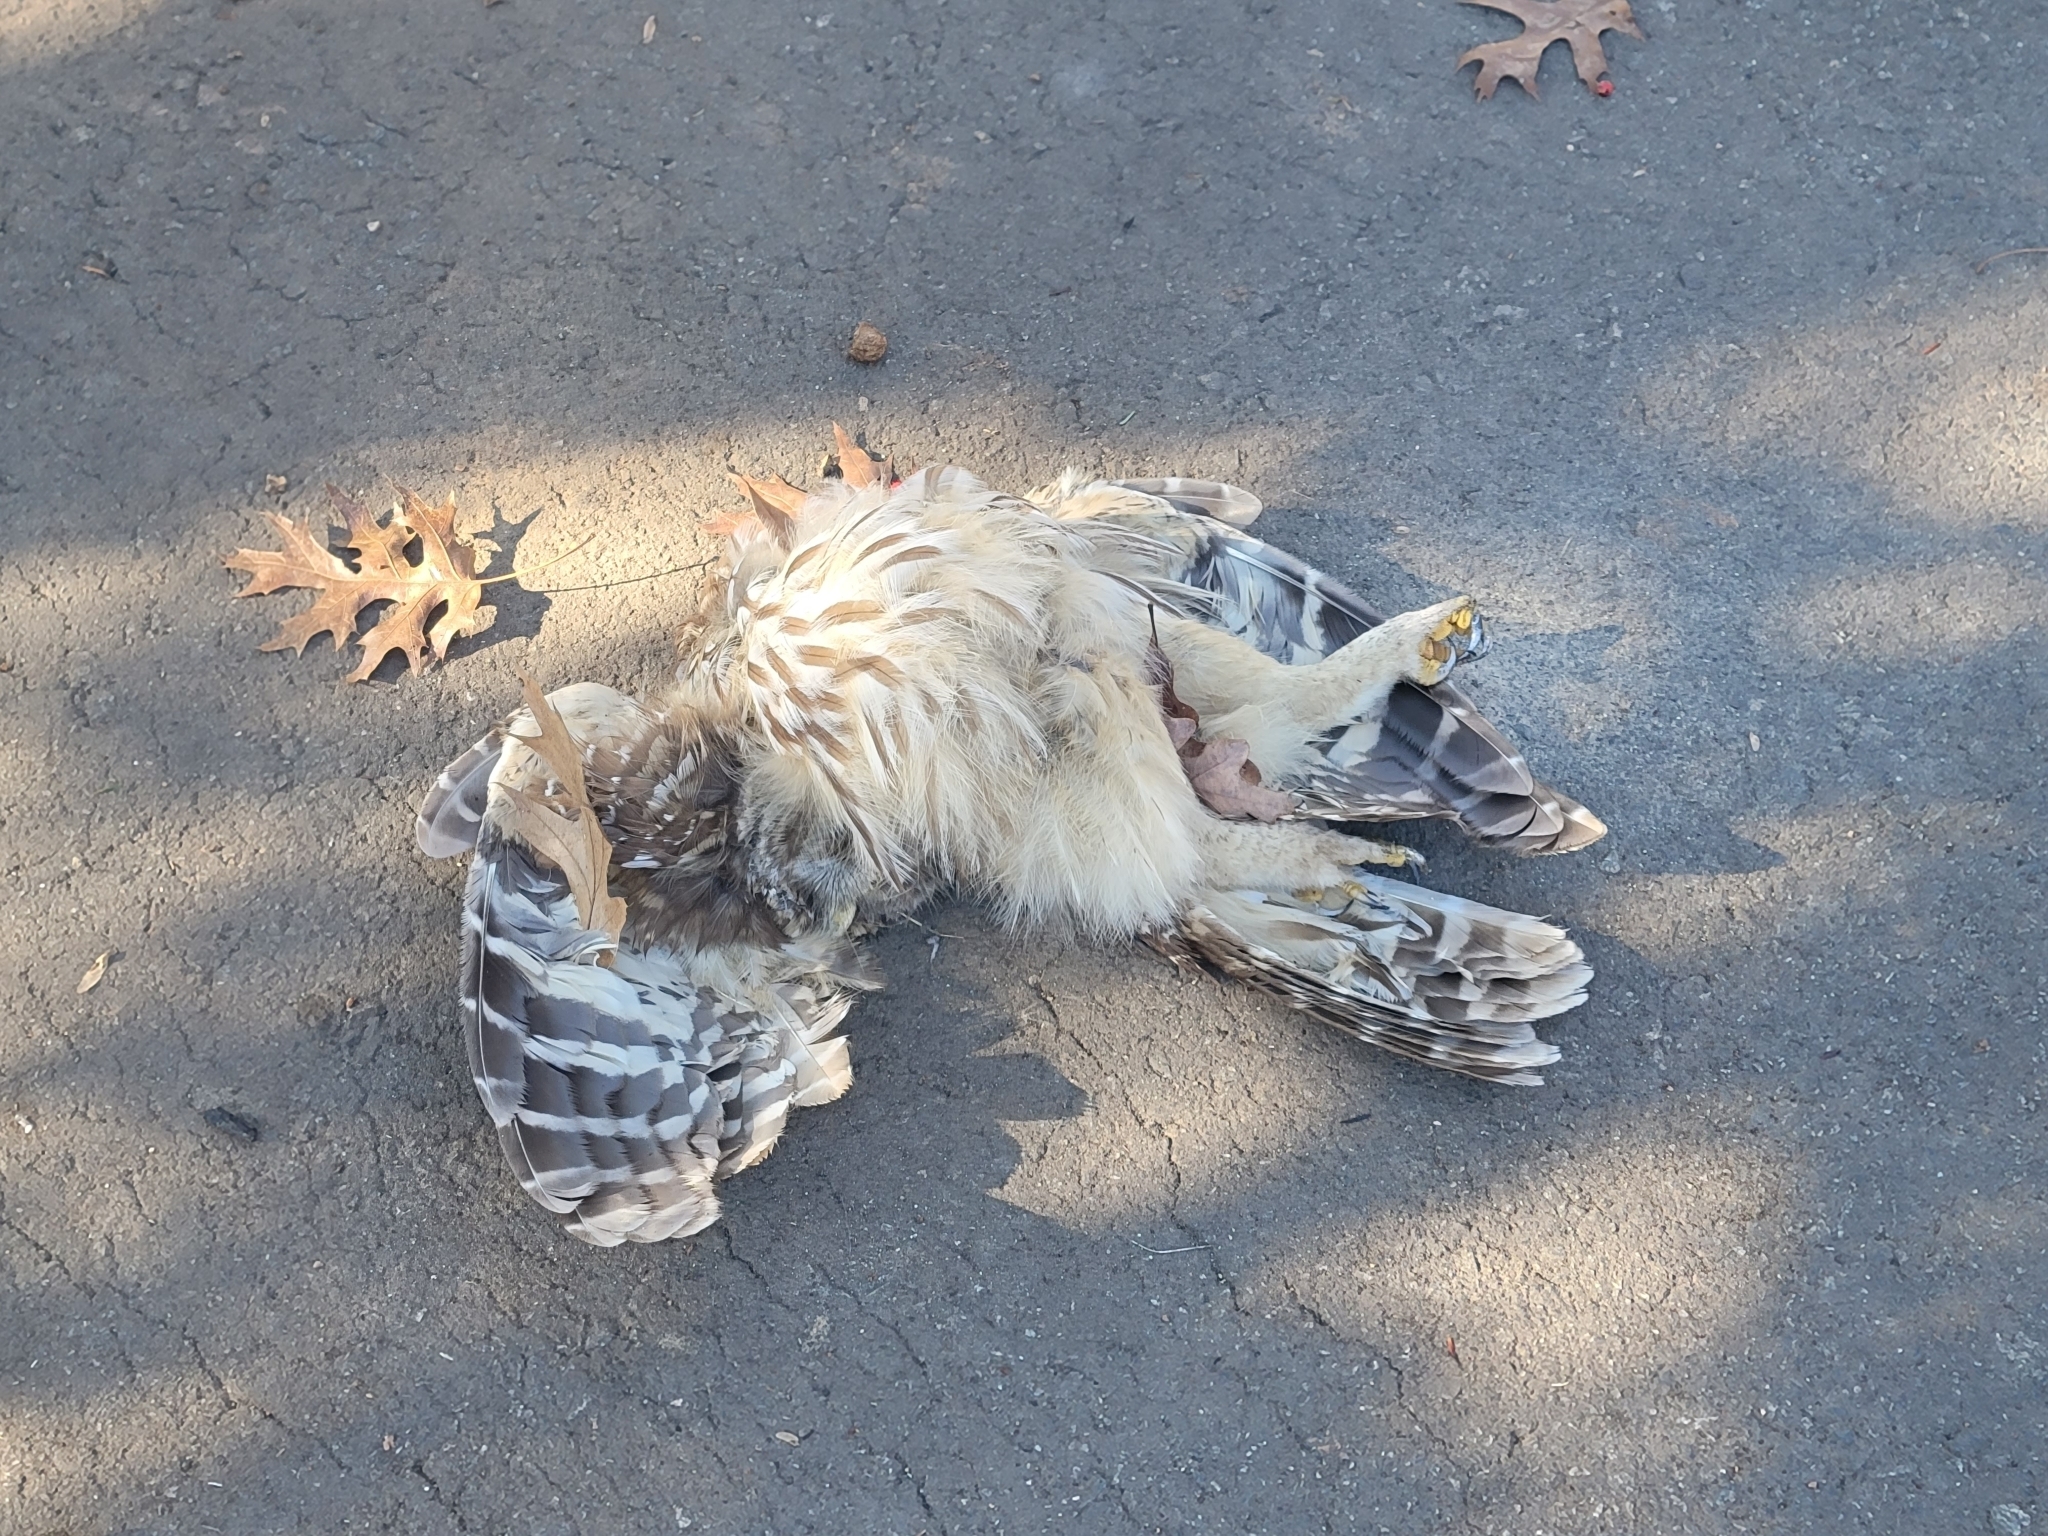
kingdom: Animalia
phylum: Chordata
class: Aves
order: Strigiformes
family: Strigidae
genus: Strix
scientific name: Strix varia
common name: Barred owl
